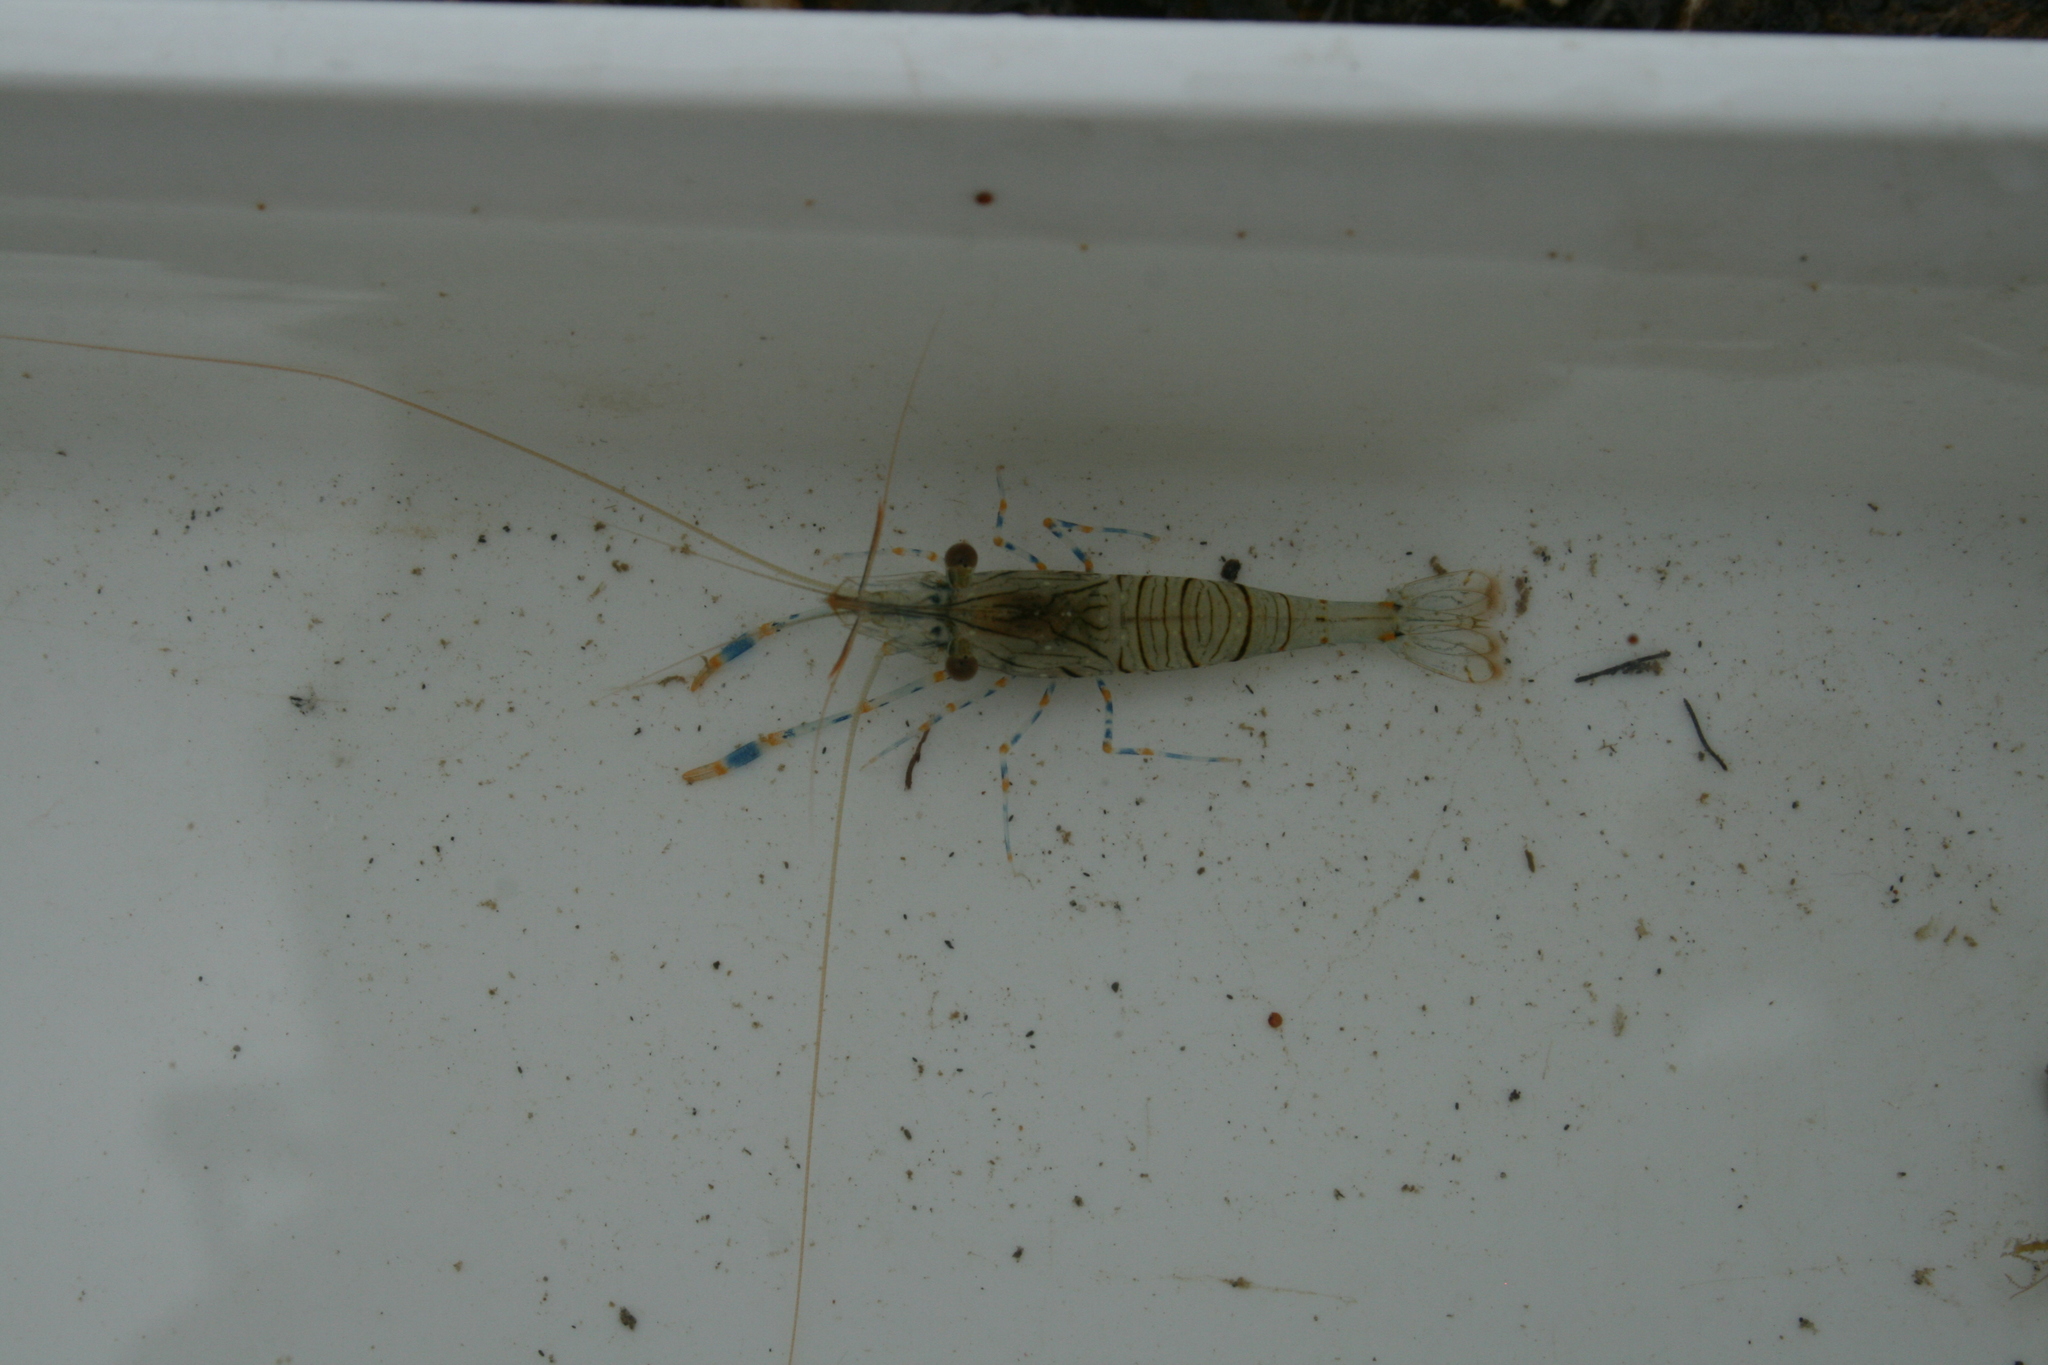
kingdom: Animalia
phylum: Arthropoda
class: Malacostraca
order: Decapoda
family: Palaemonidae
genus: Palaemon
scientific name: Palaemon elegans
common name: Grass prawm
